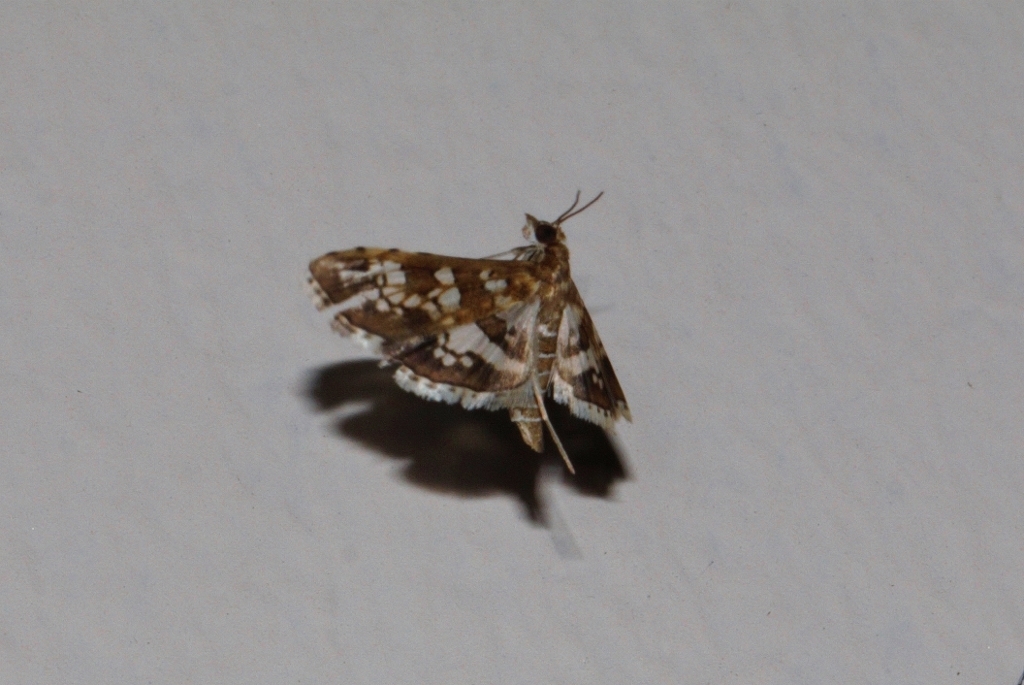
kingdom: Animalia
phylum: Arthropoda
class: Insecta
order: Lepidoptera
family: Crambidae
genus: Sameodes
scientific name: Sameodes cancellalis
